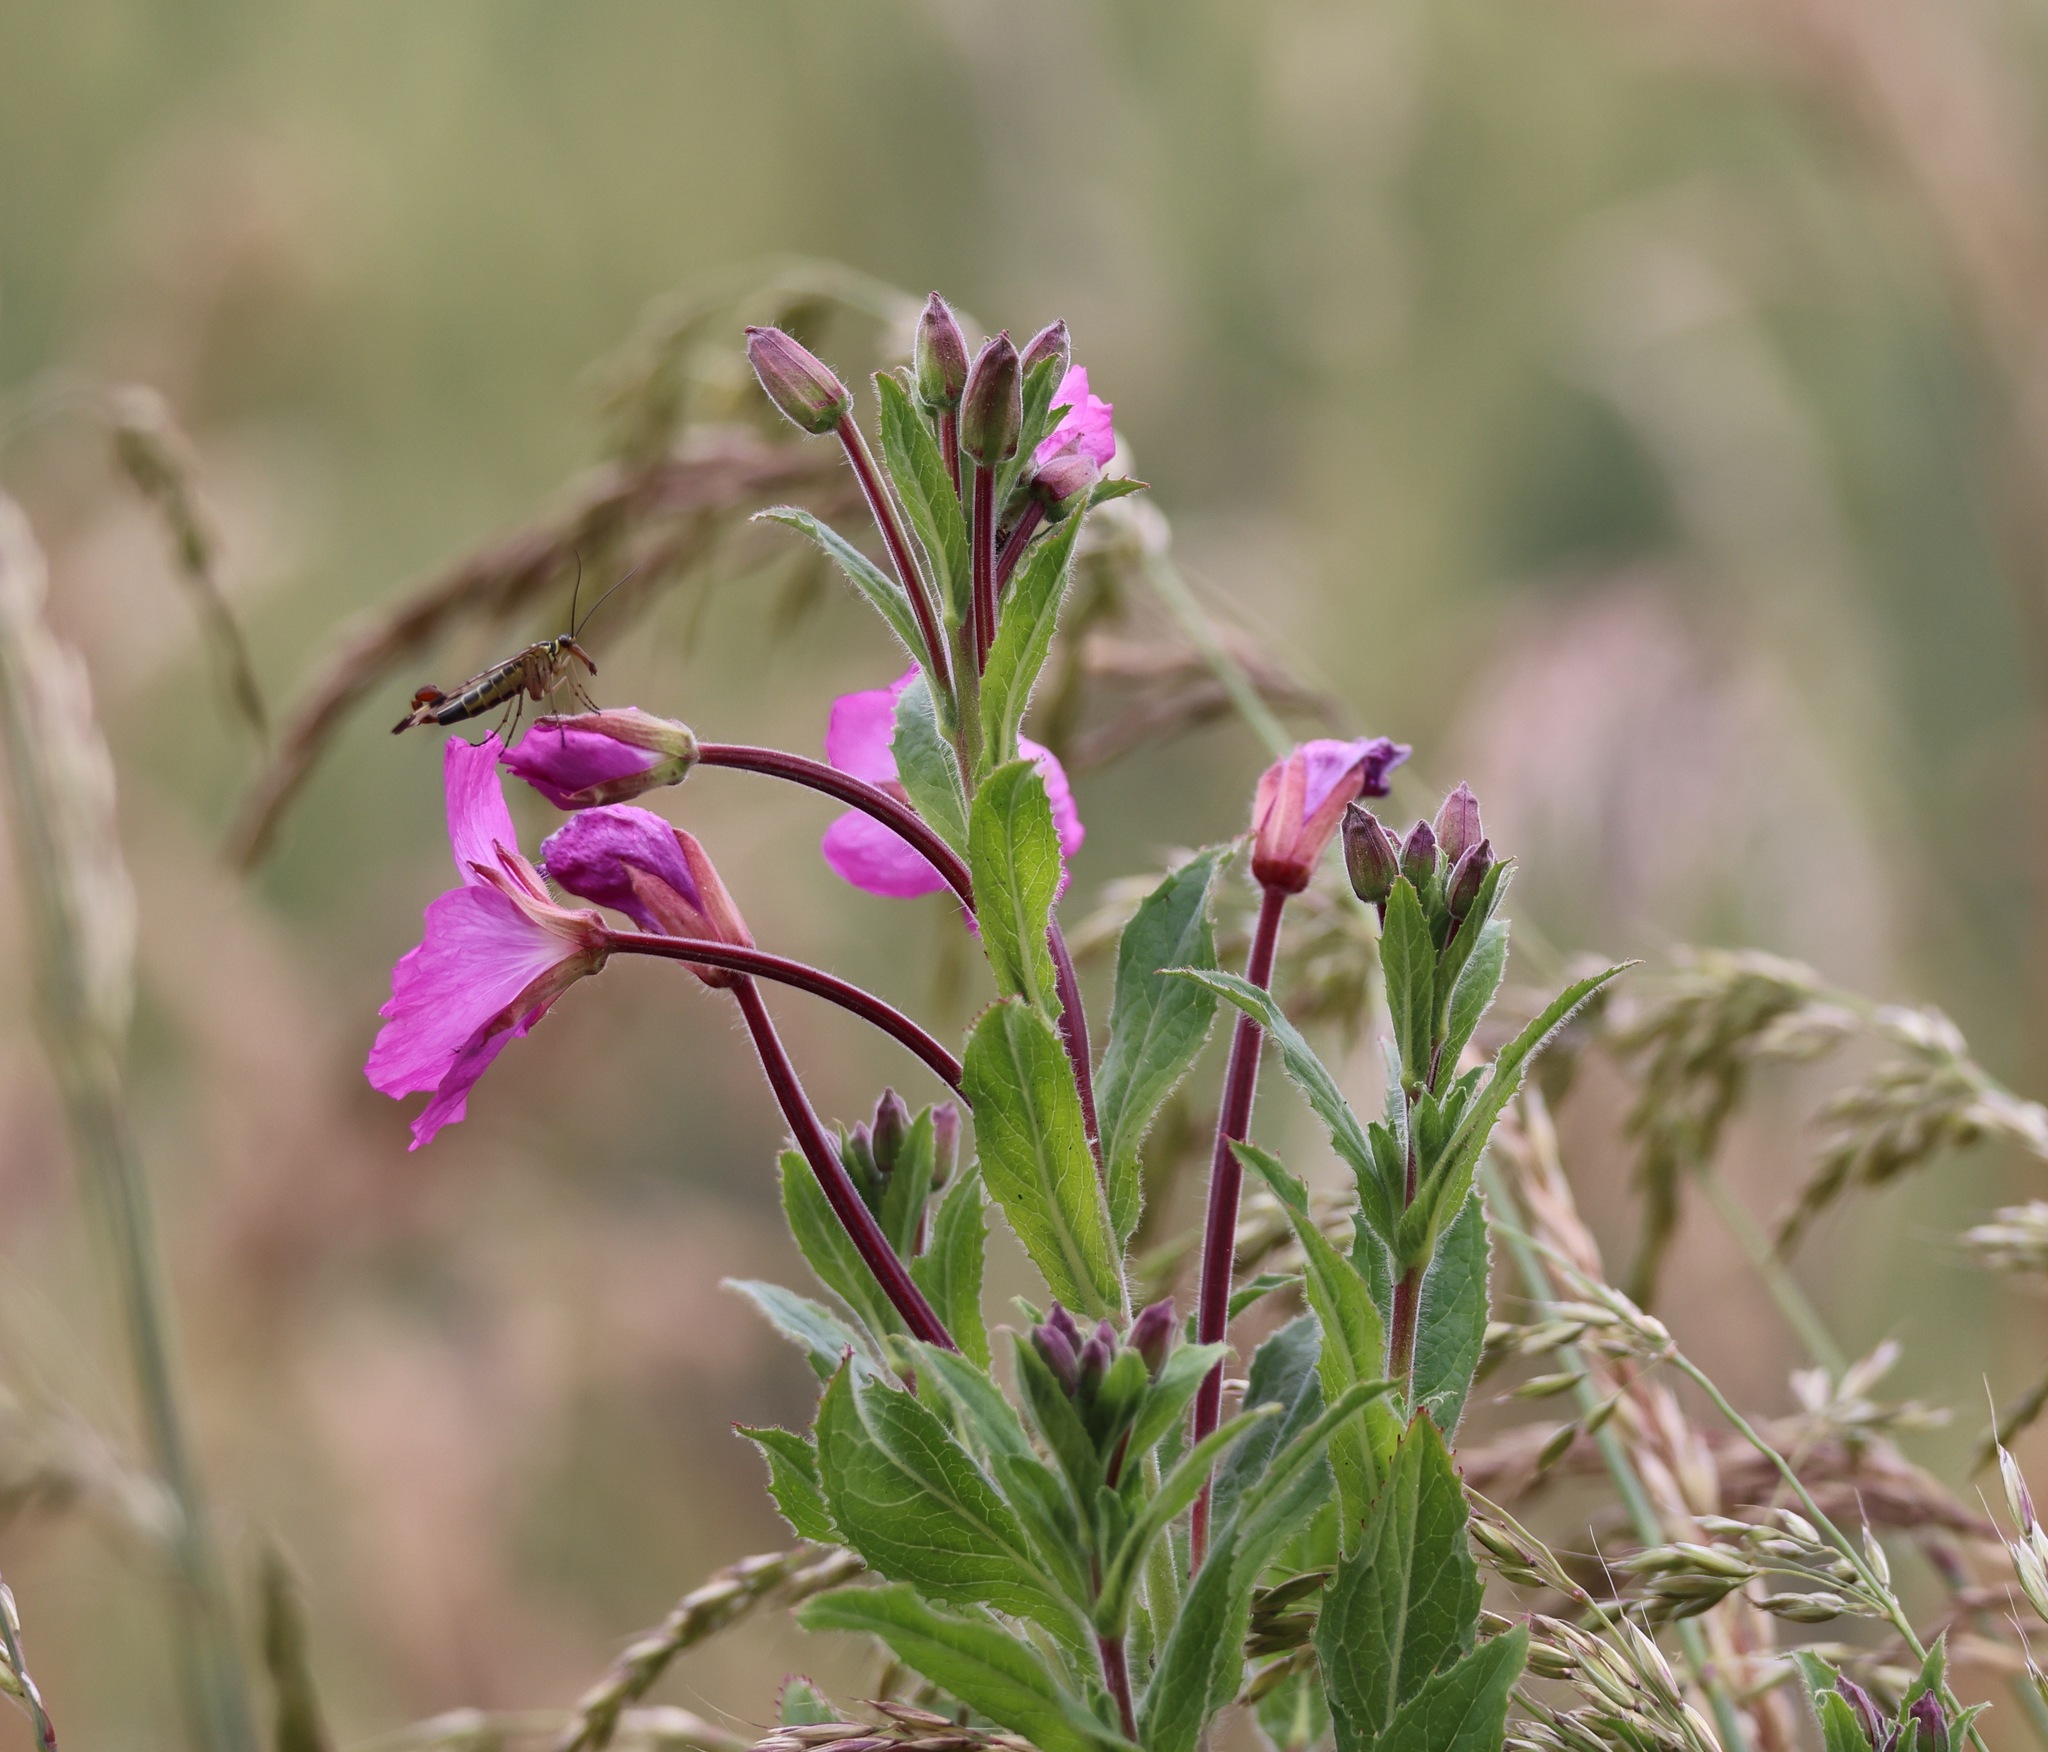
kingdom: Plantae
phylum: Tracheophyta
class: Magnoliopsida
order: Myrtales
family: Onagraceae
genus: Epilobium
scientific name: Epilobium hirsutum
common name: Great willowherb
